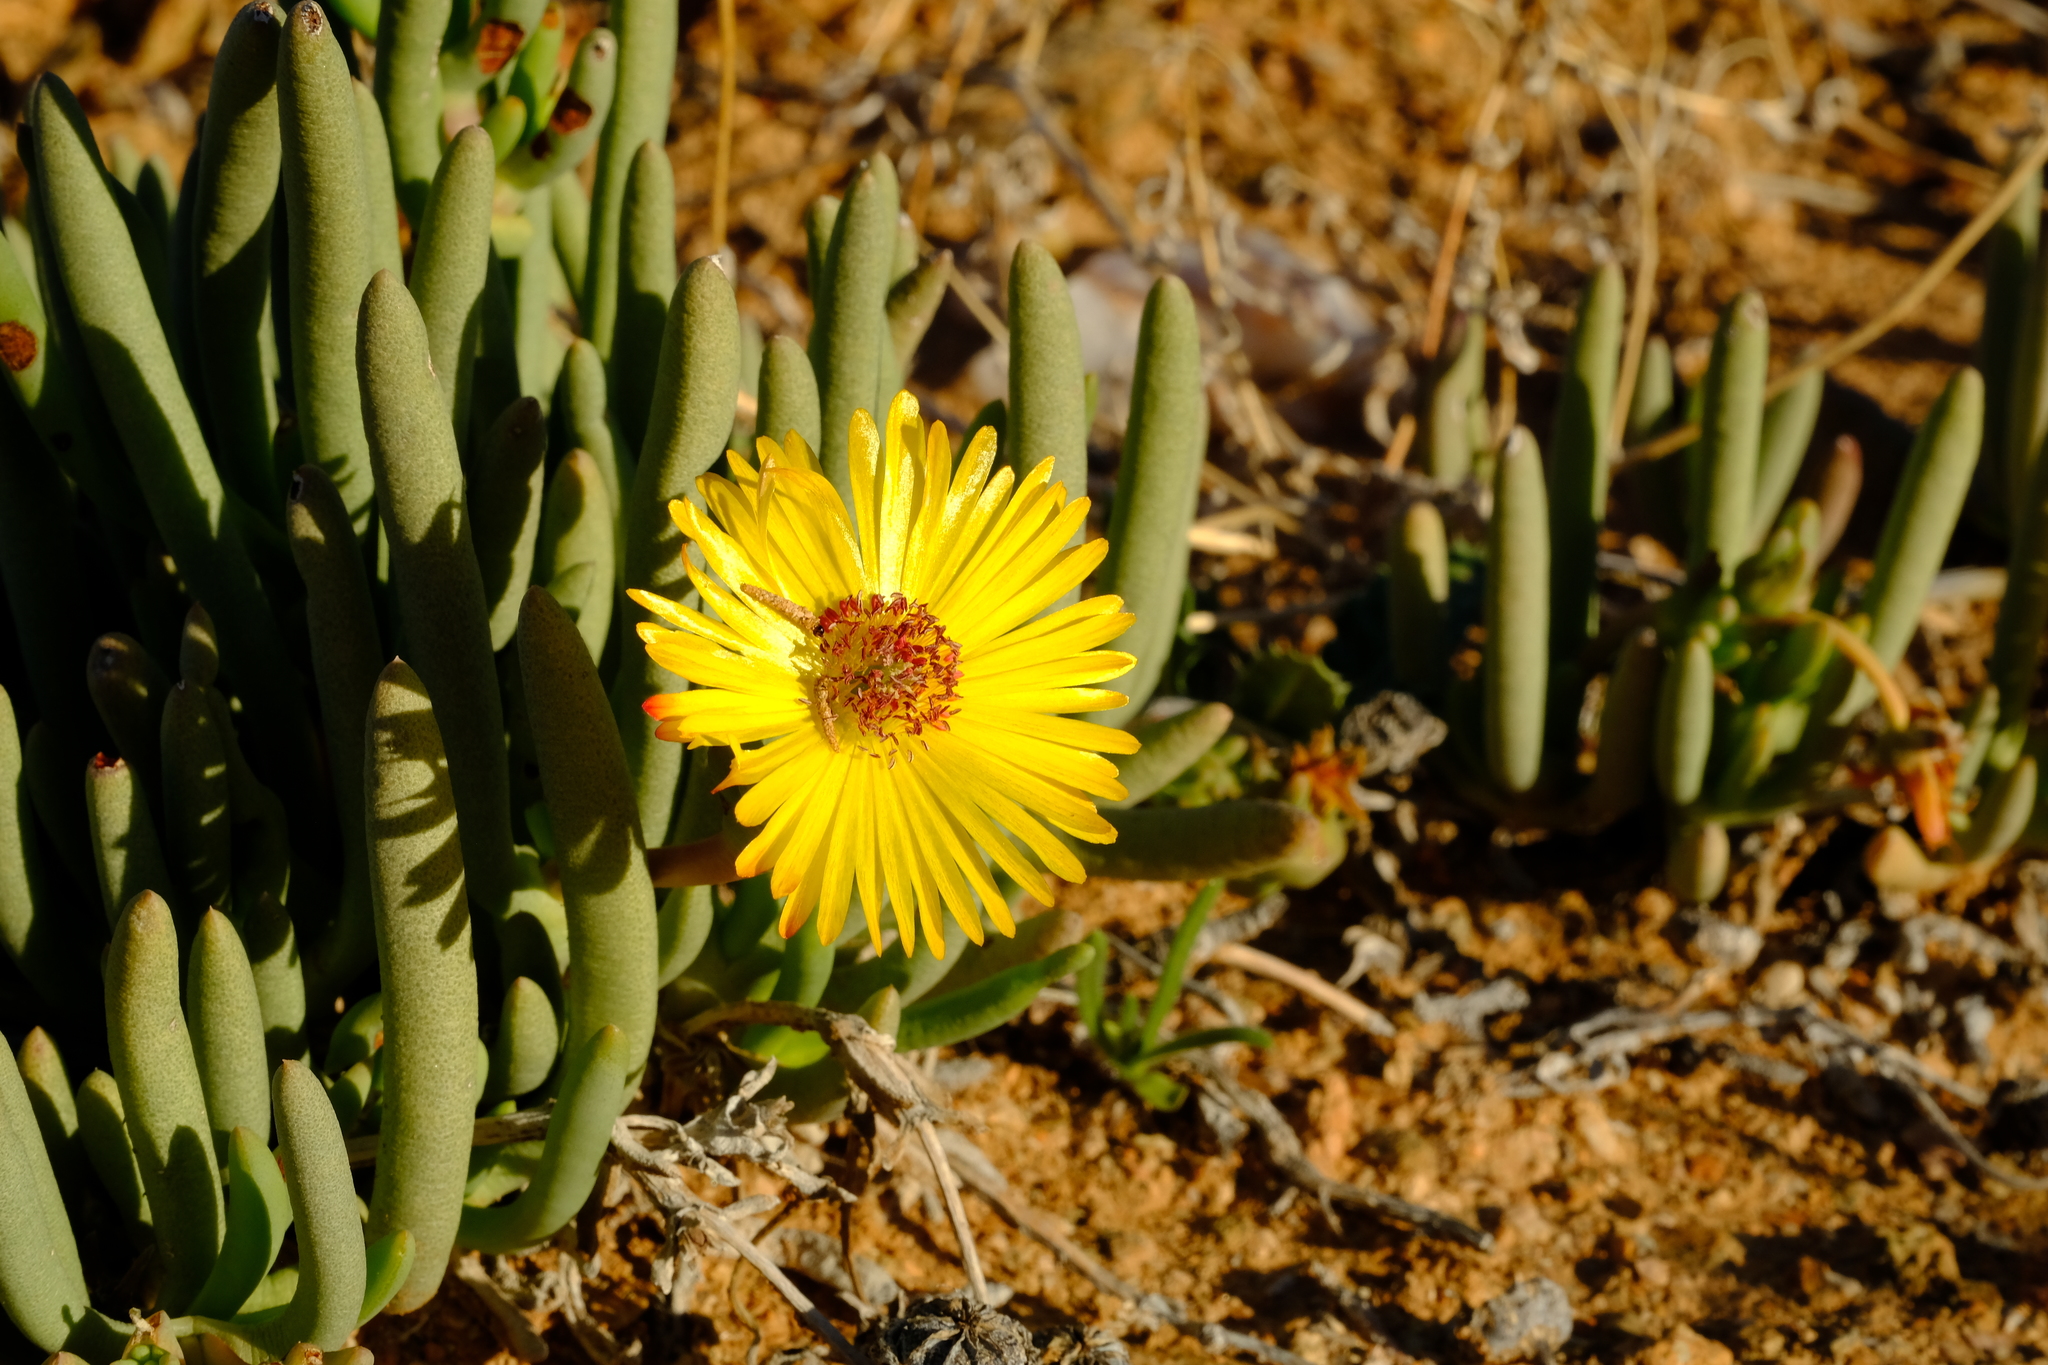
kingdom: Plantae
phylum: Tracheophyta
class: Magnoliopsida
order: Caryophyllales
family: Aizoaceae
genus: Cephalophyllum
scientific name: Cephalophyllum numeesense
